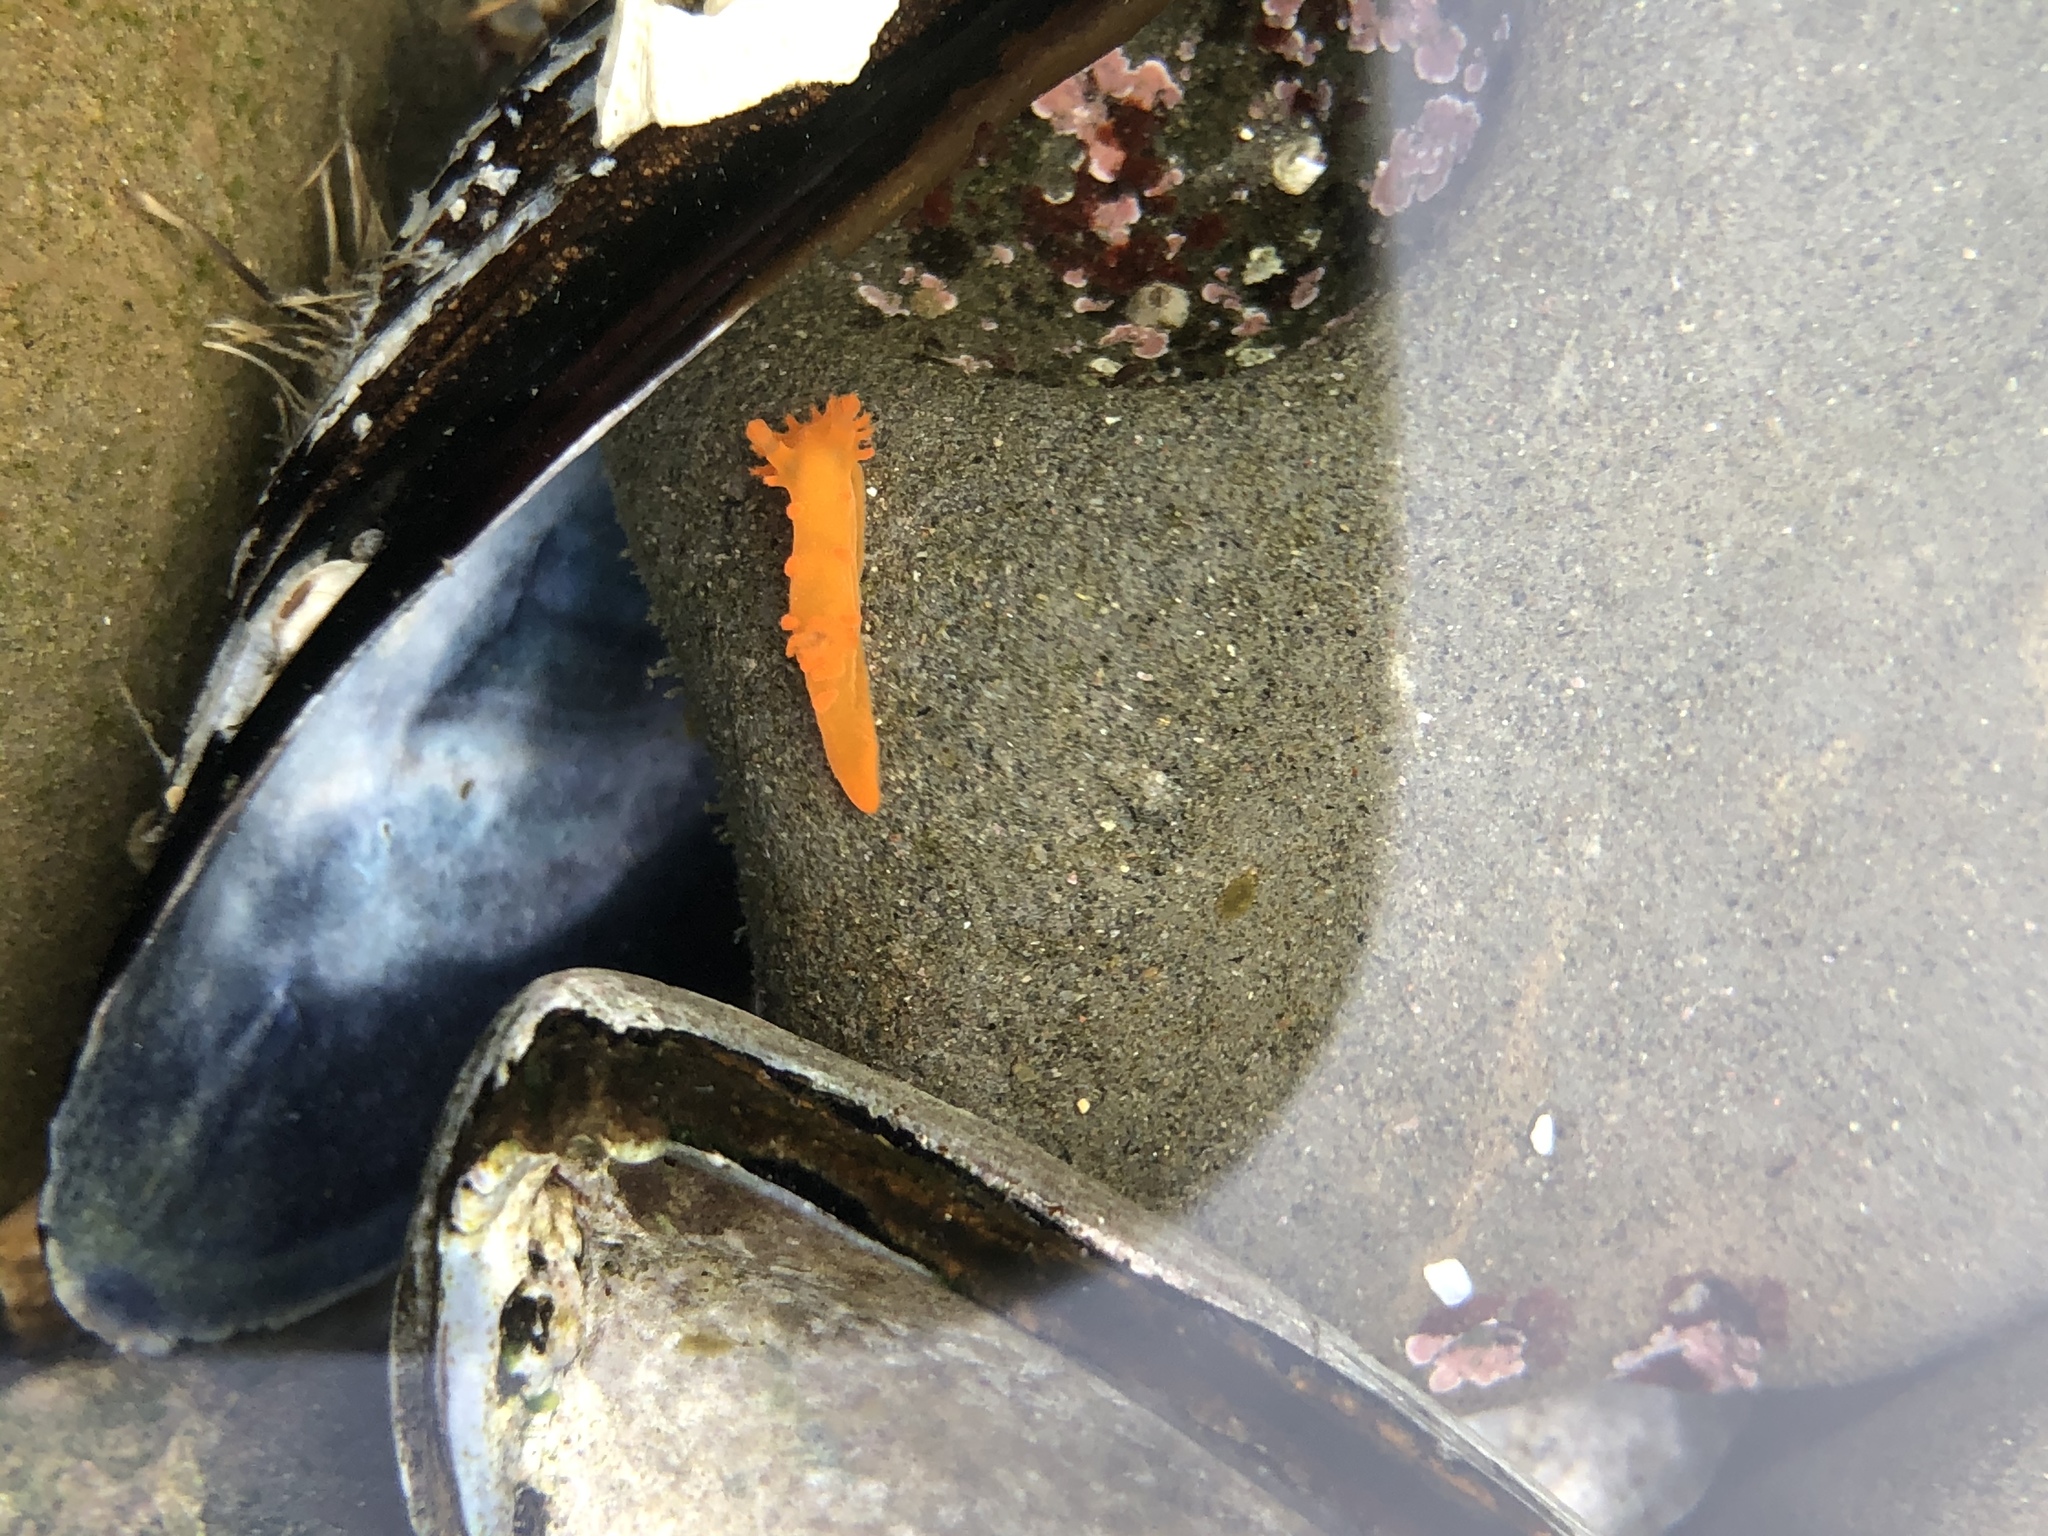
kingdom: Animalia
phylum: Mollusca
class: Gastropoda
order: Nudibranchia
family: Polyceridae
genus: Triopha
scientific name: Triopha maculata
